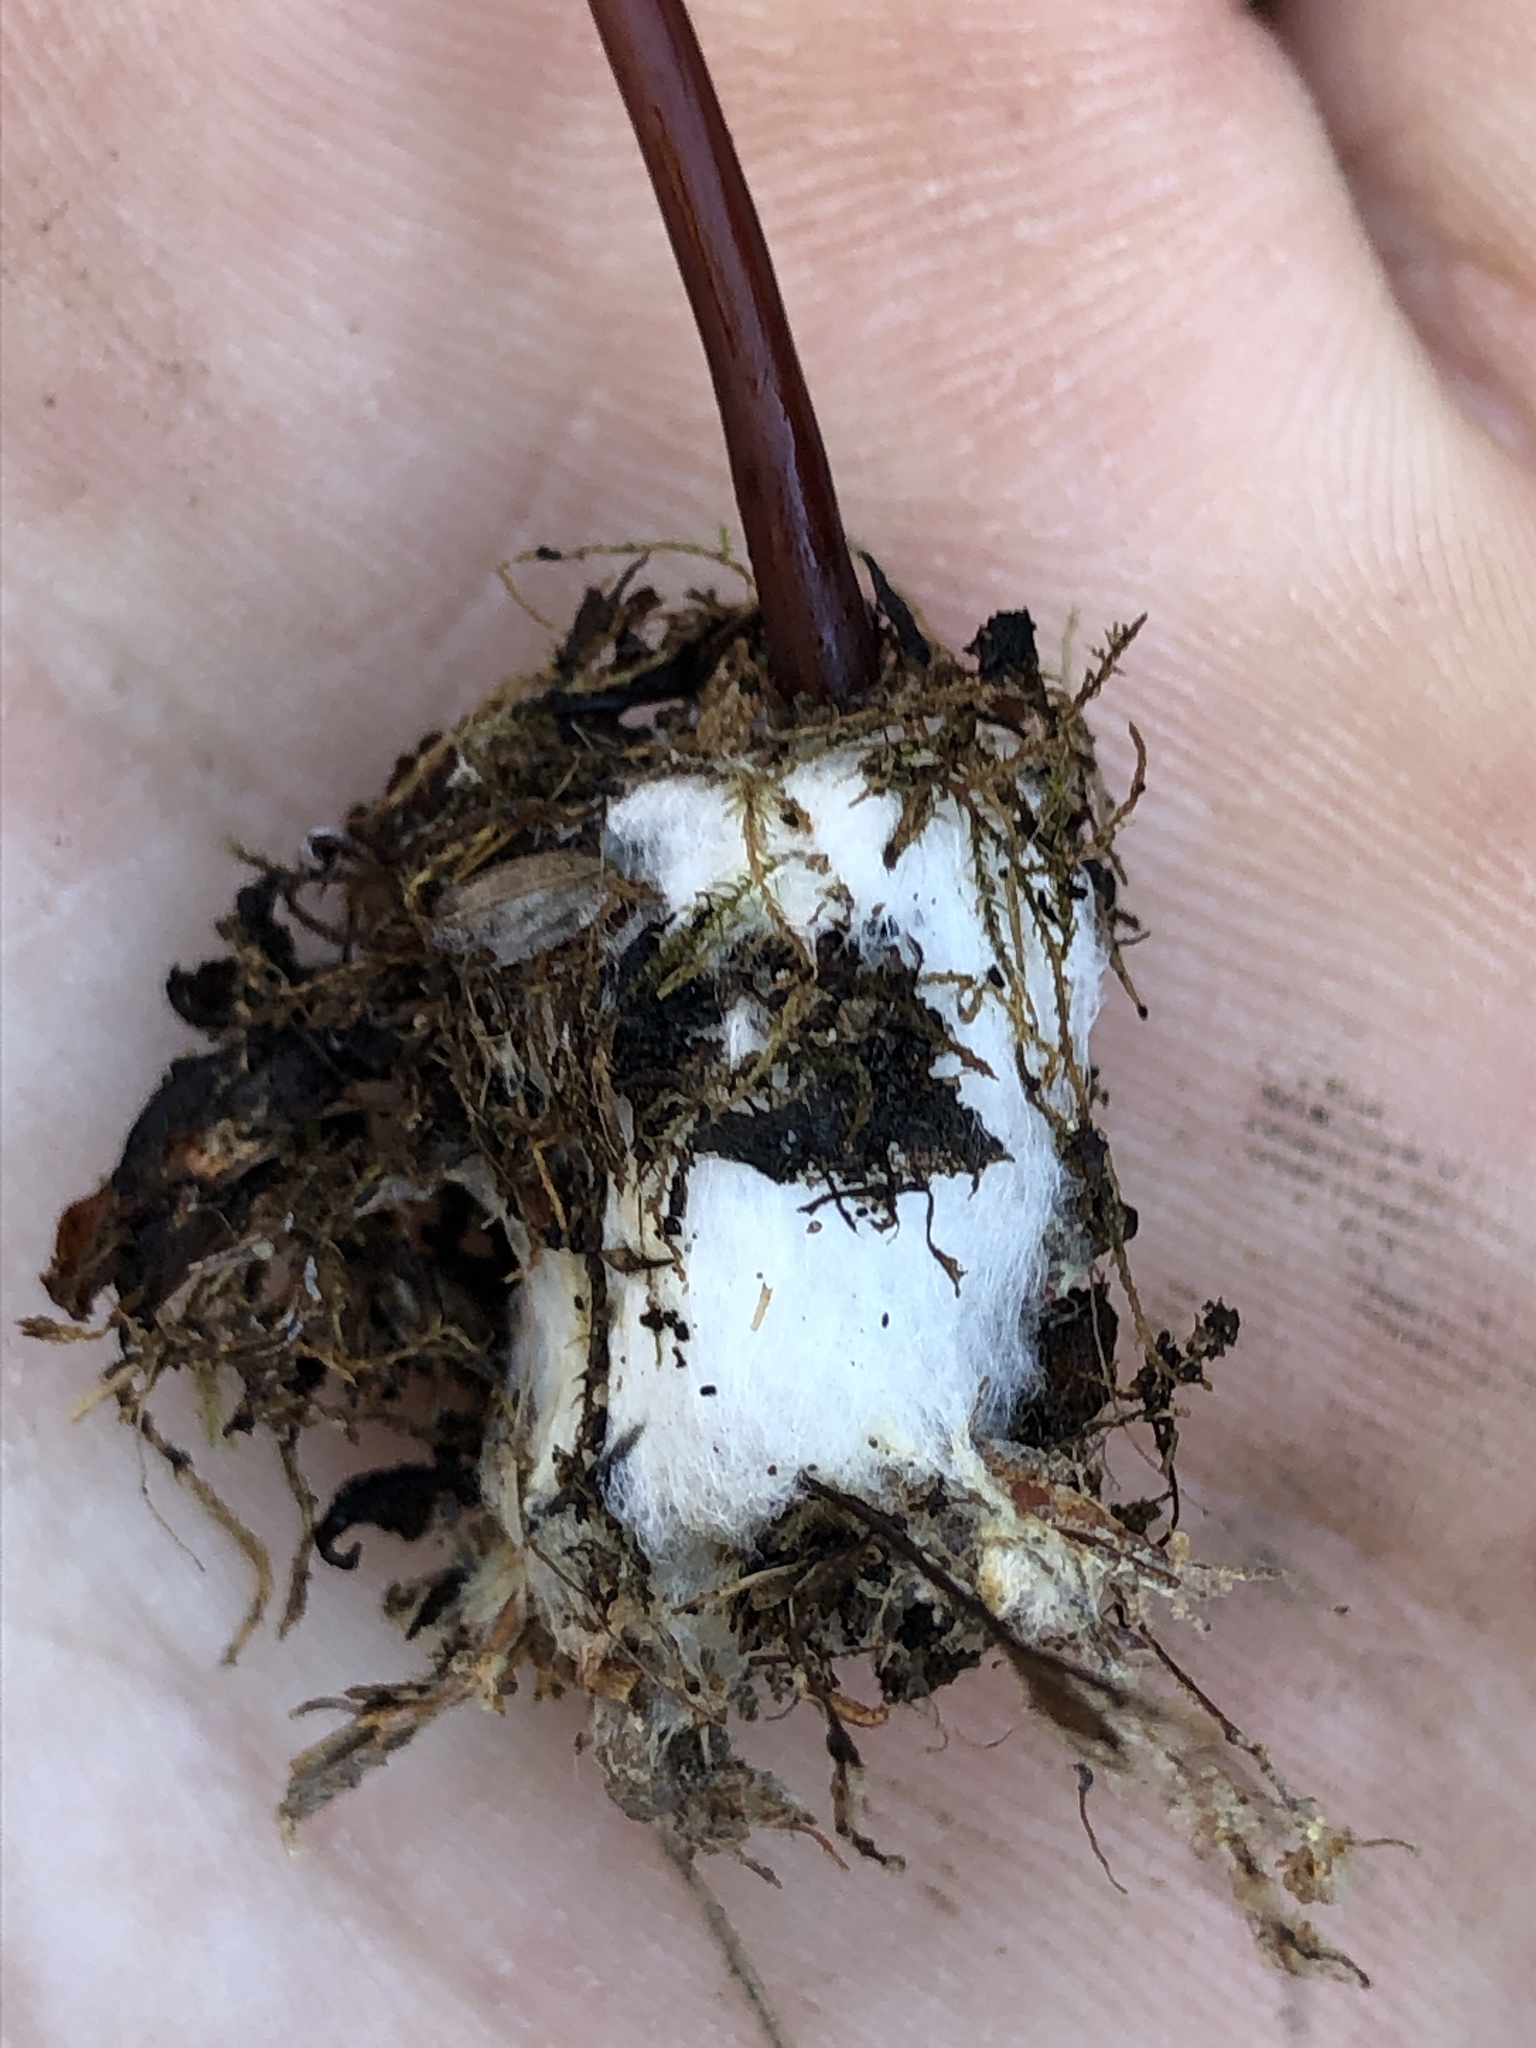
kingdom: Fungi
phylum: Basidiomycota
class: Agaricomycetes
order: Agaricales
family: Marasmiaceae
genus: Marasmius
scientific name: Marasmius plicatulus
